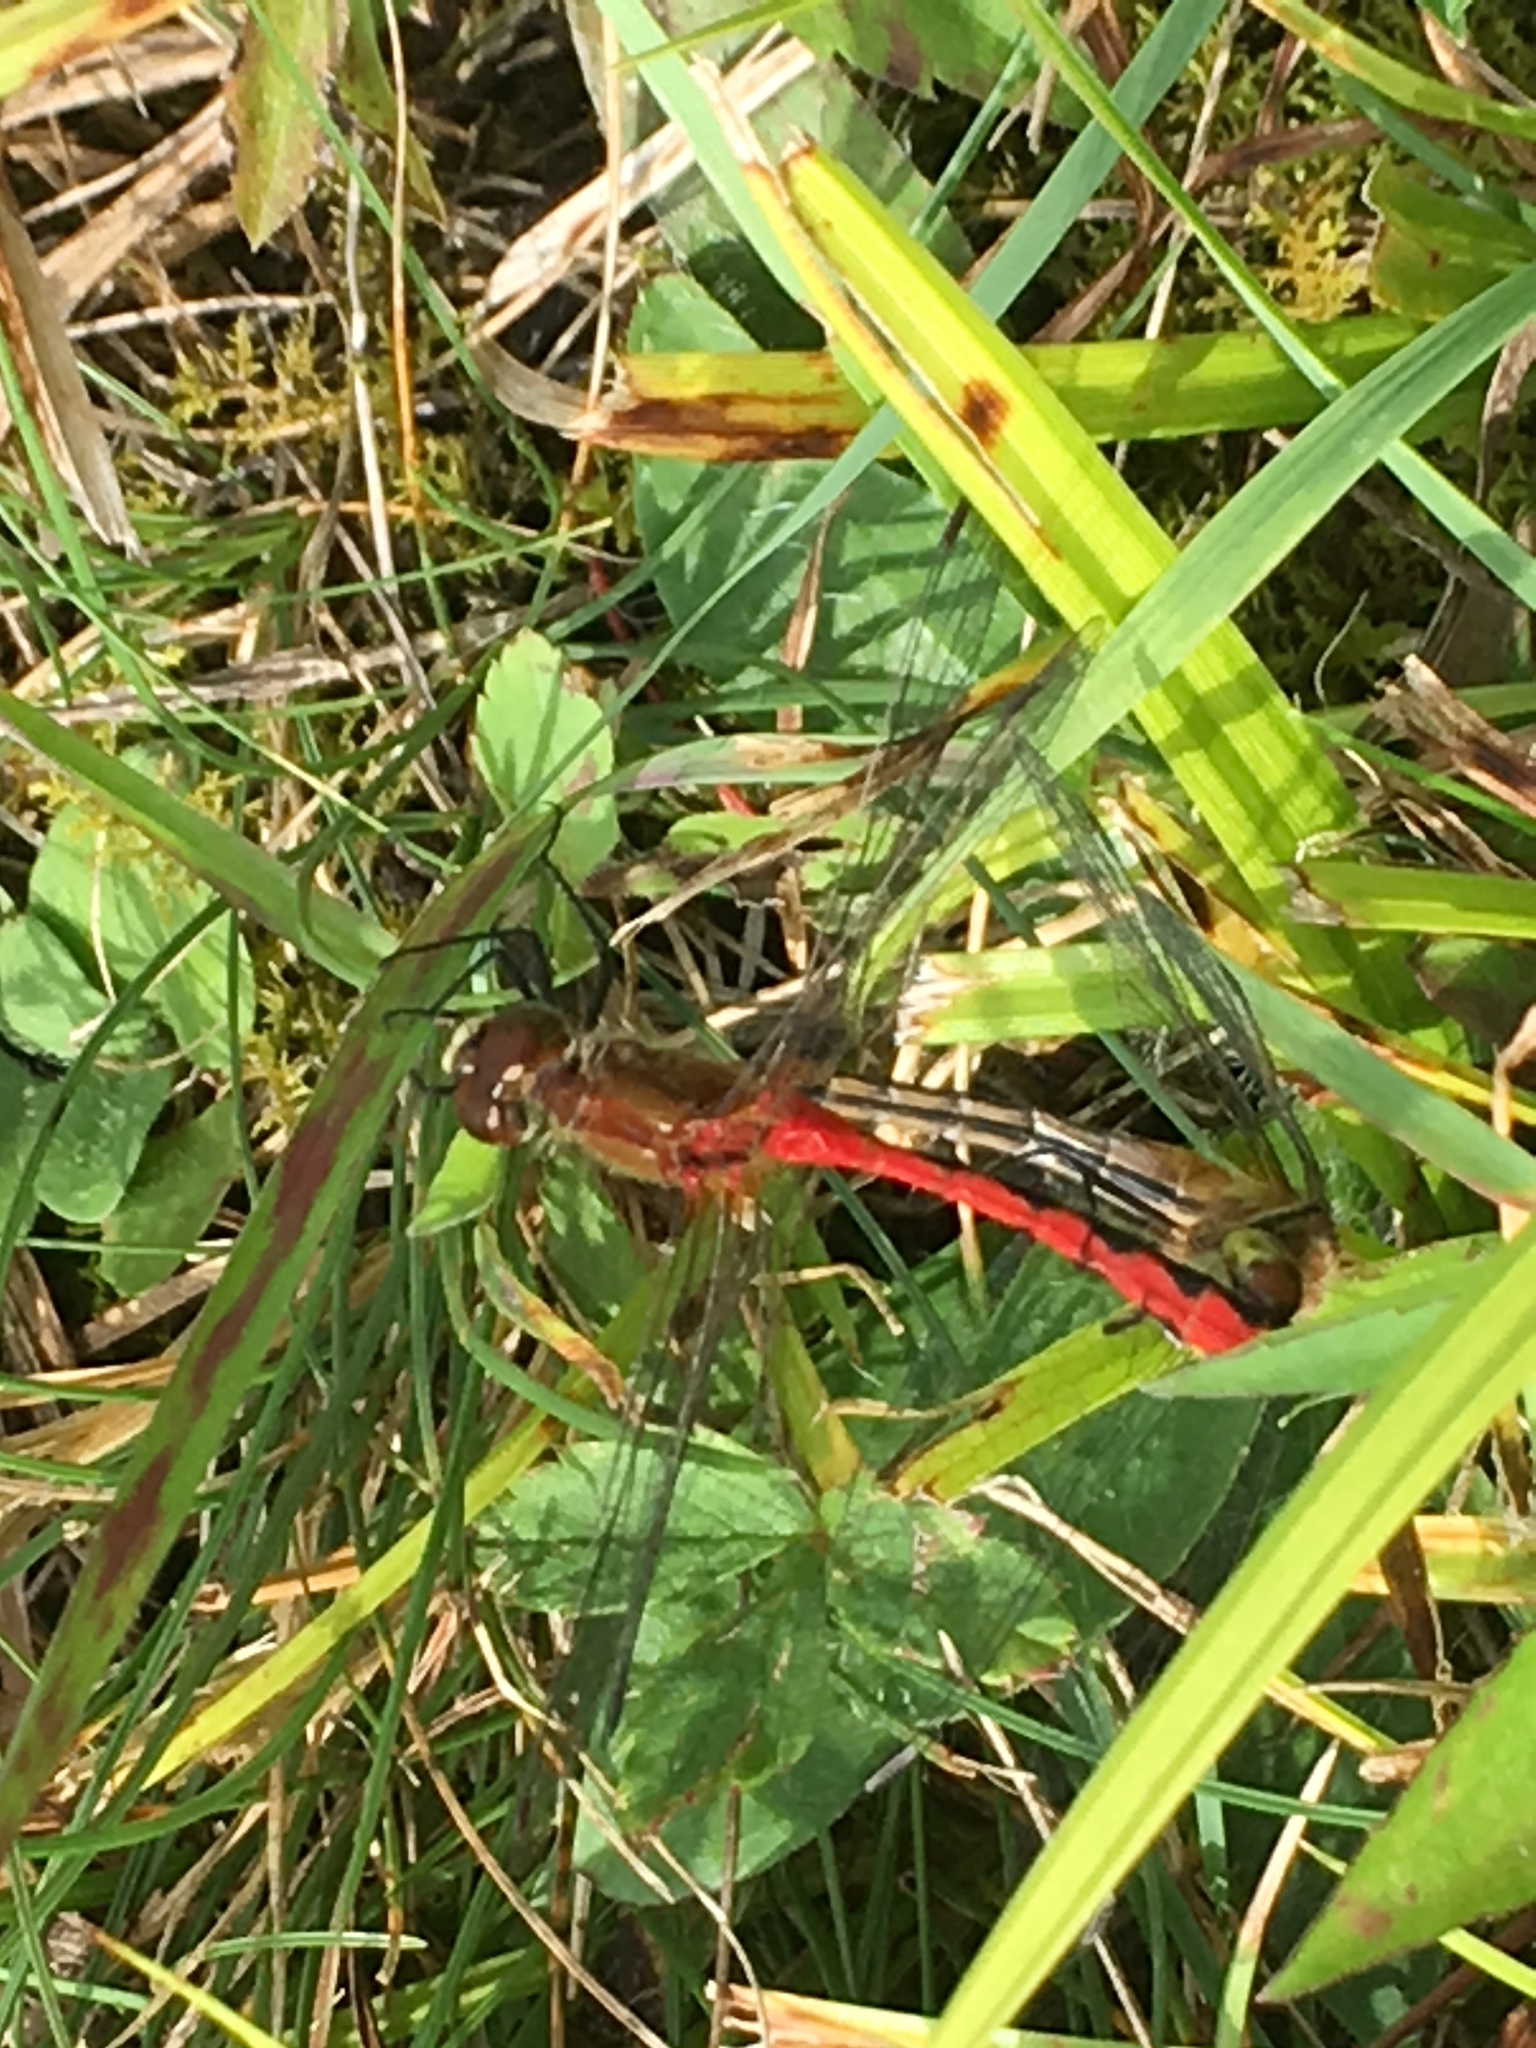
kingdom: Animalia
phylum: Arthropoda
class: Insecta
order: Odonata
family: Libellulidae
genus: Sympetrum
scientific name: Sympetrum obtrusum
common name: White-faced meadowhawk
